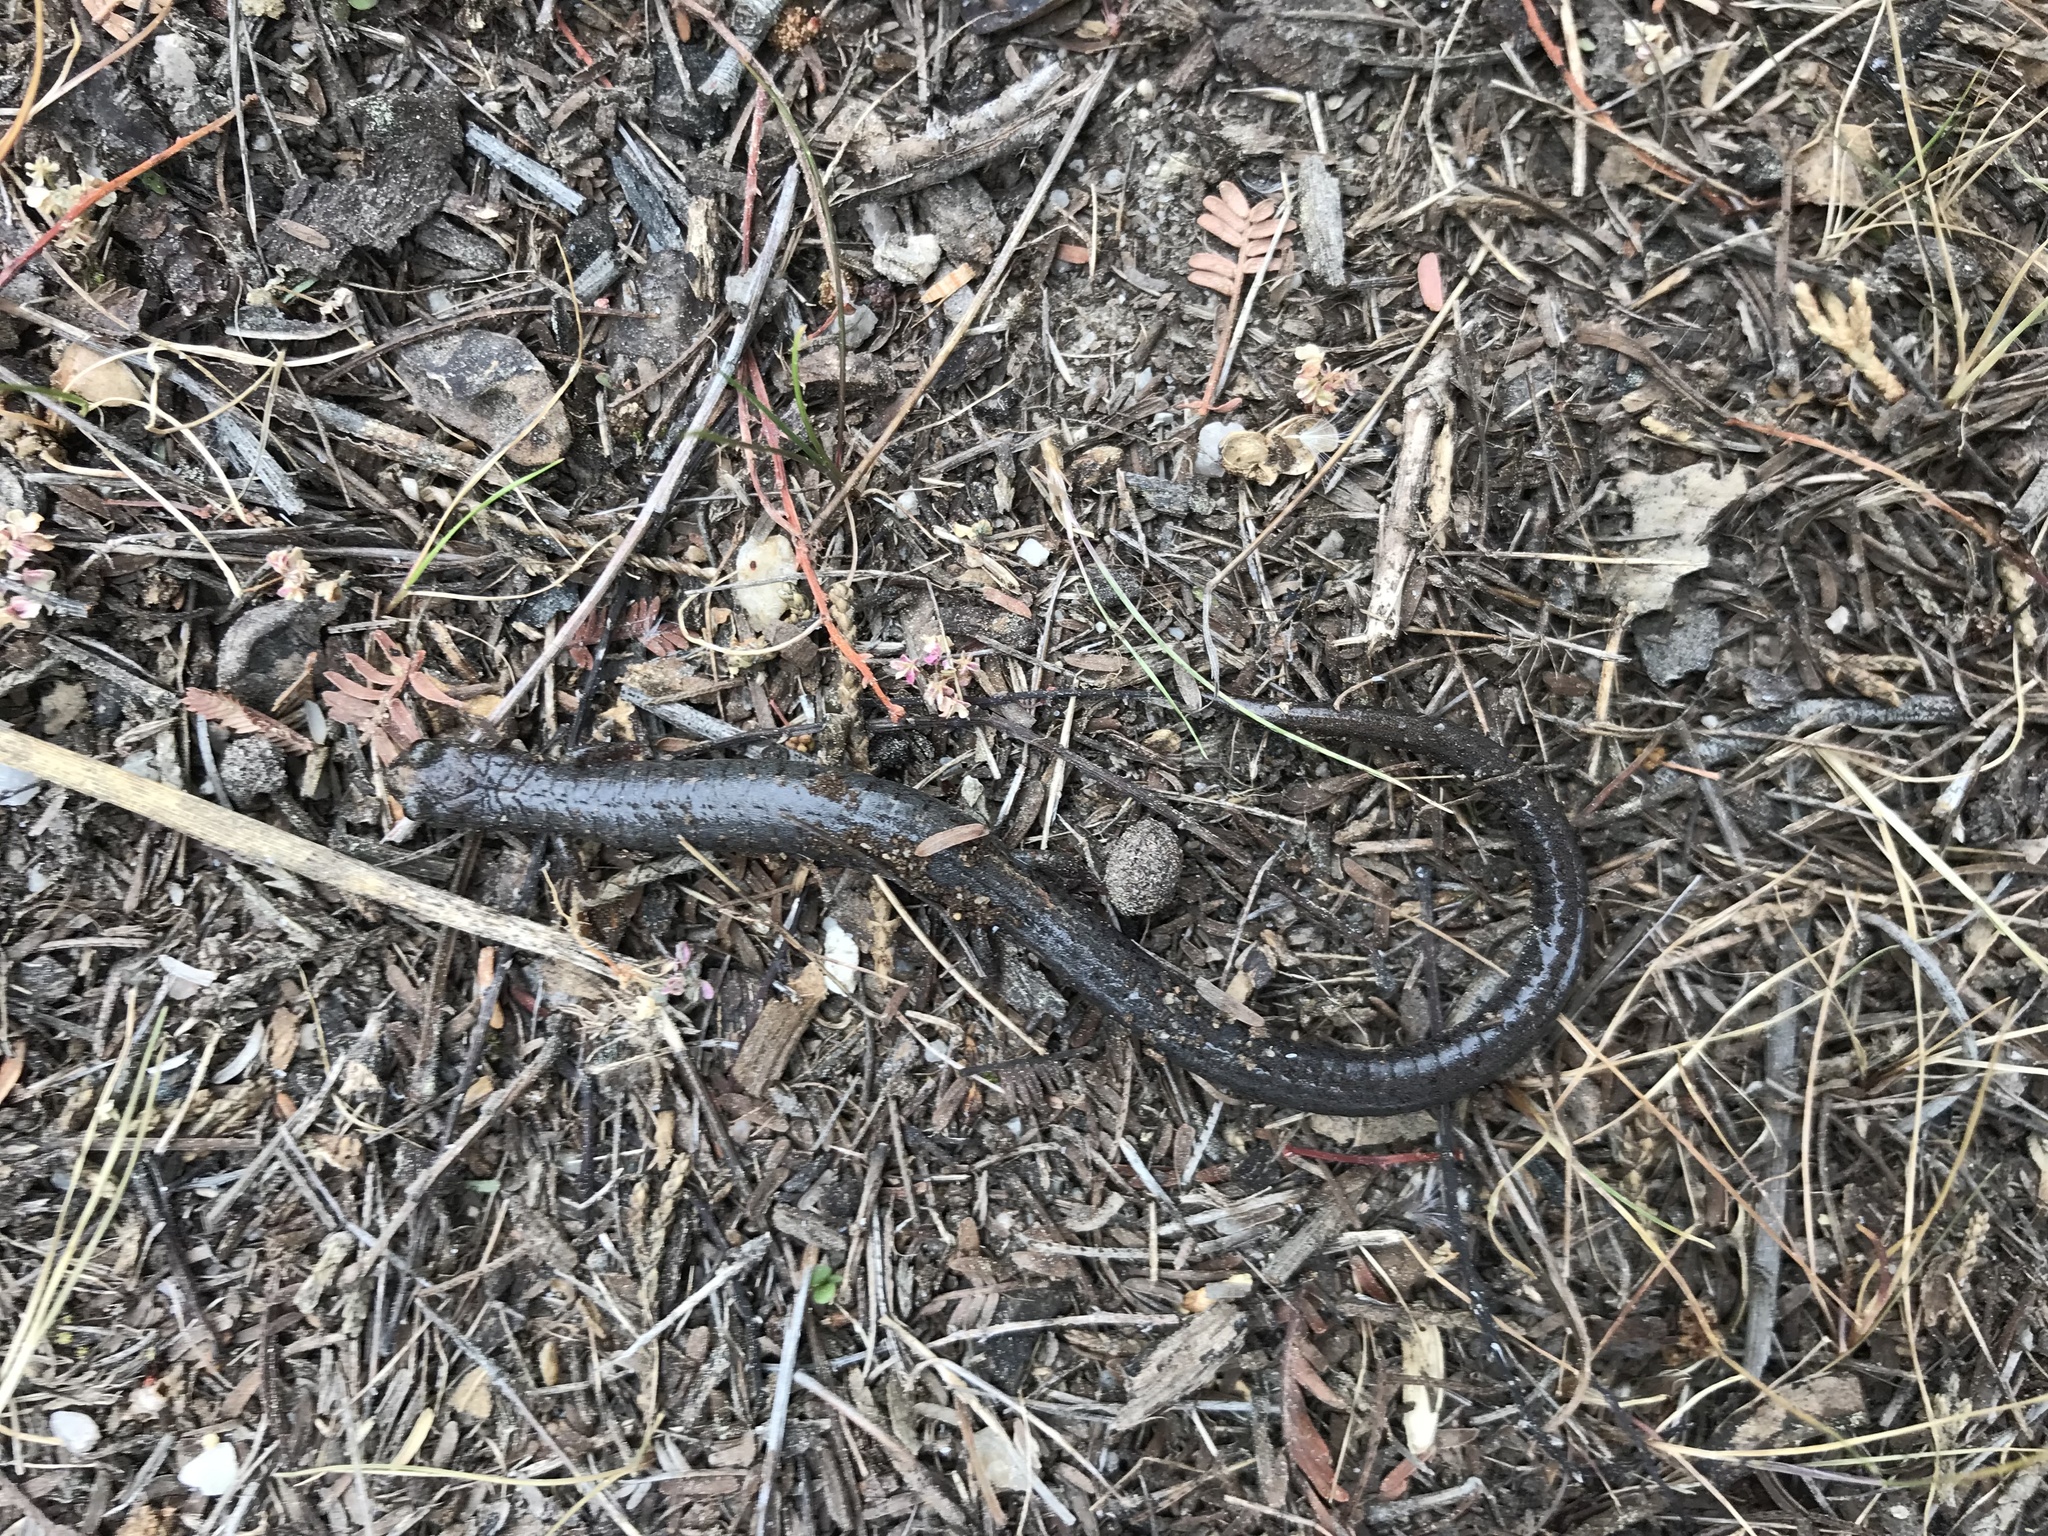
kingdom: Animalia
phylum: Chordata
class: Amphibia
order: Caudata
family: Plethodontidae
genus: Batrachoseps
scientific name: Batrachoseps luciae
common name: Santa lucia mountains slender salamander
